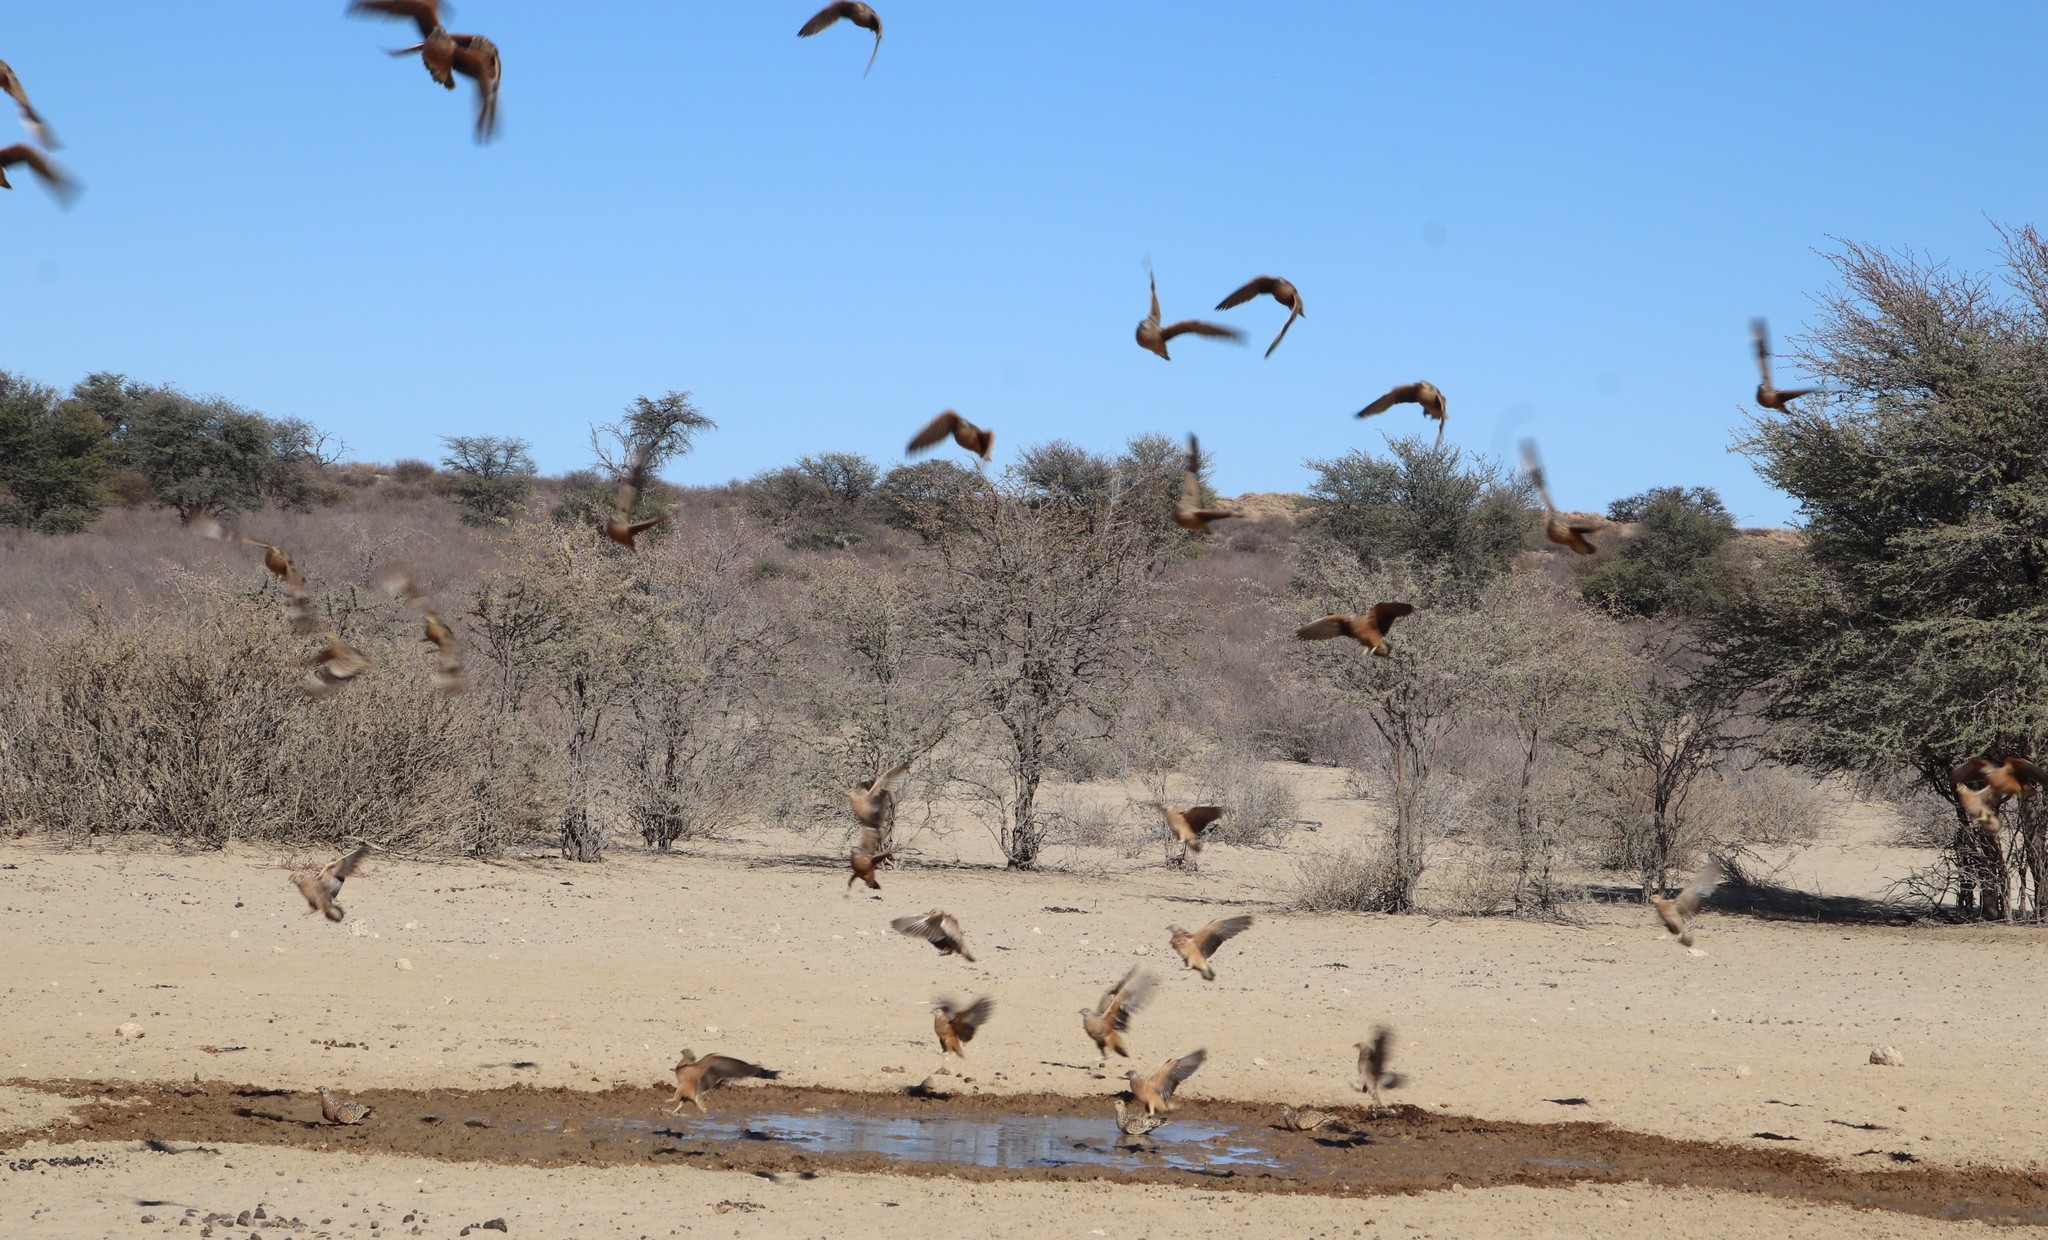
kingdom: Animalia
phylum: Chordata
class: Aves
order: Pteroclidiformes
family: Pteroclididae
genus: Pterocles
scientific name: Pterocles burchelli
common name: Burchell's sandgrouse
